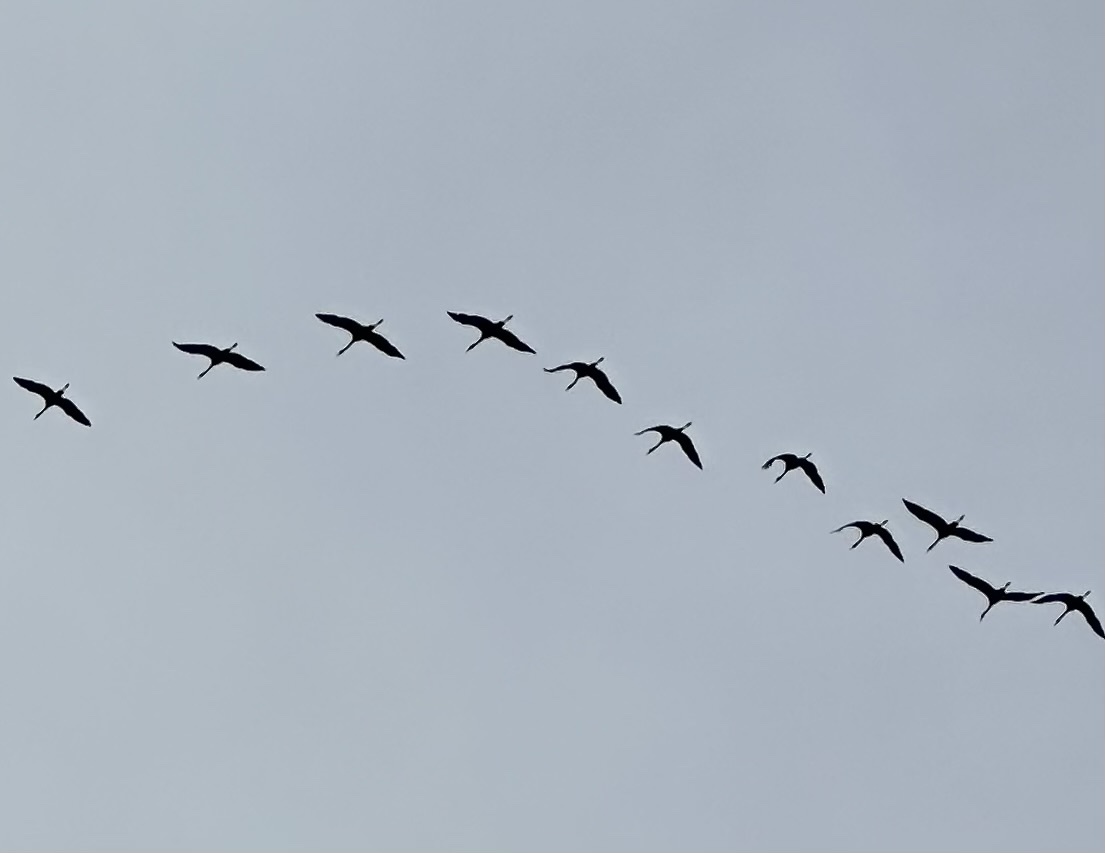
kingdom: Animalia
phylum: Chordata
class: Aves
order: Gruiformes
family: Gruidae
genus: Grus
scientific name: Grus grus
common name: Common crane
